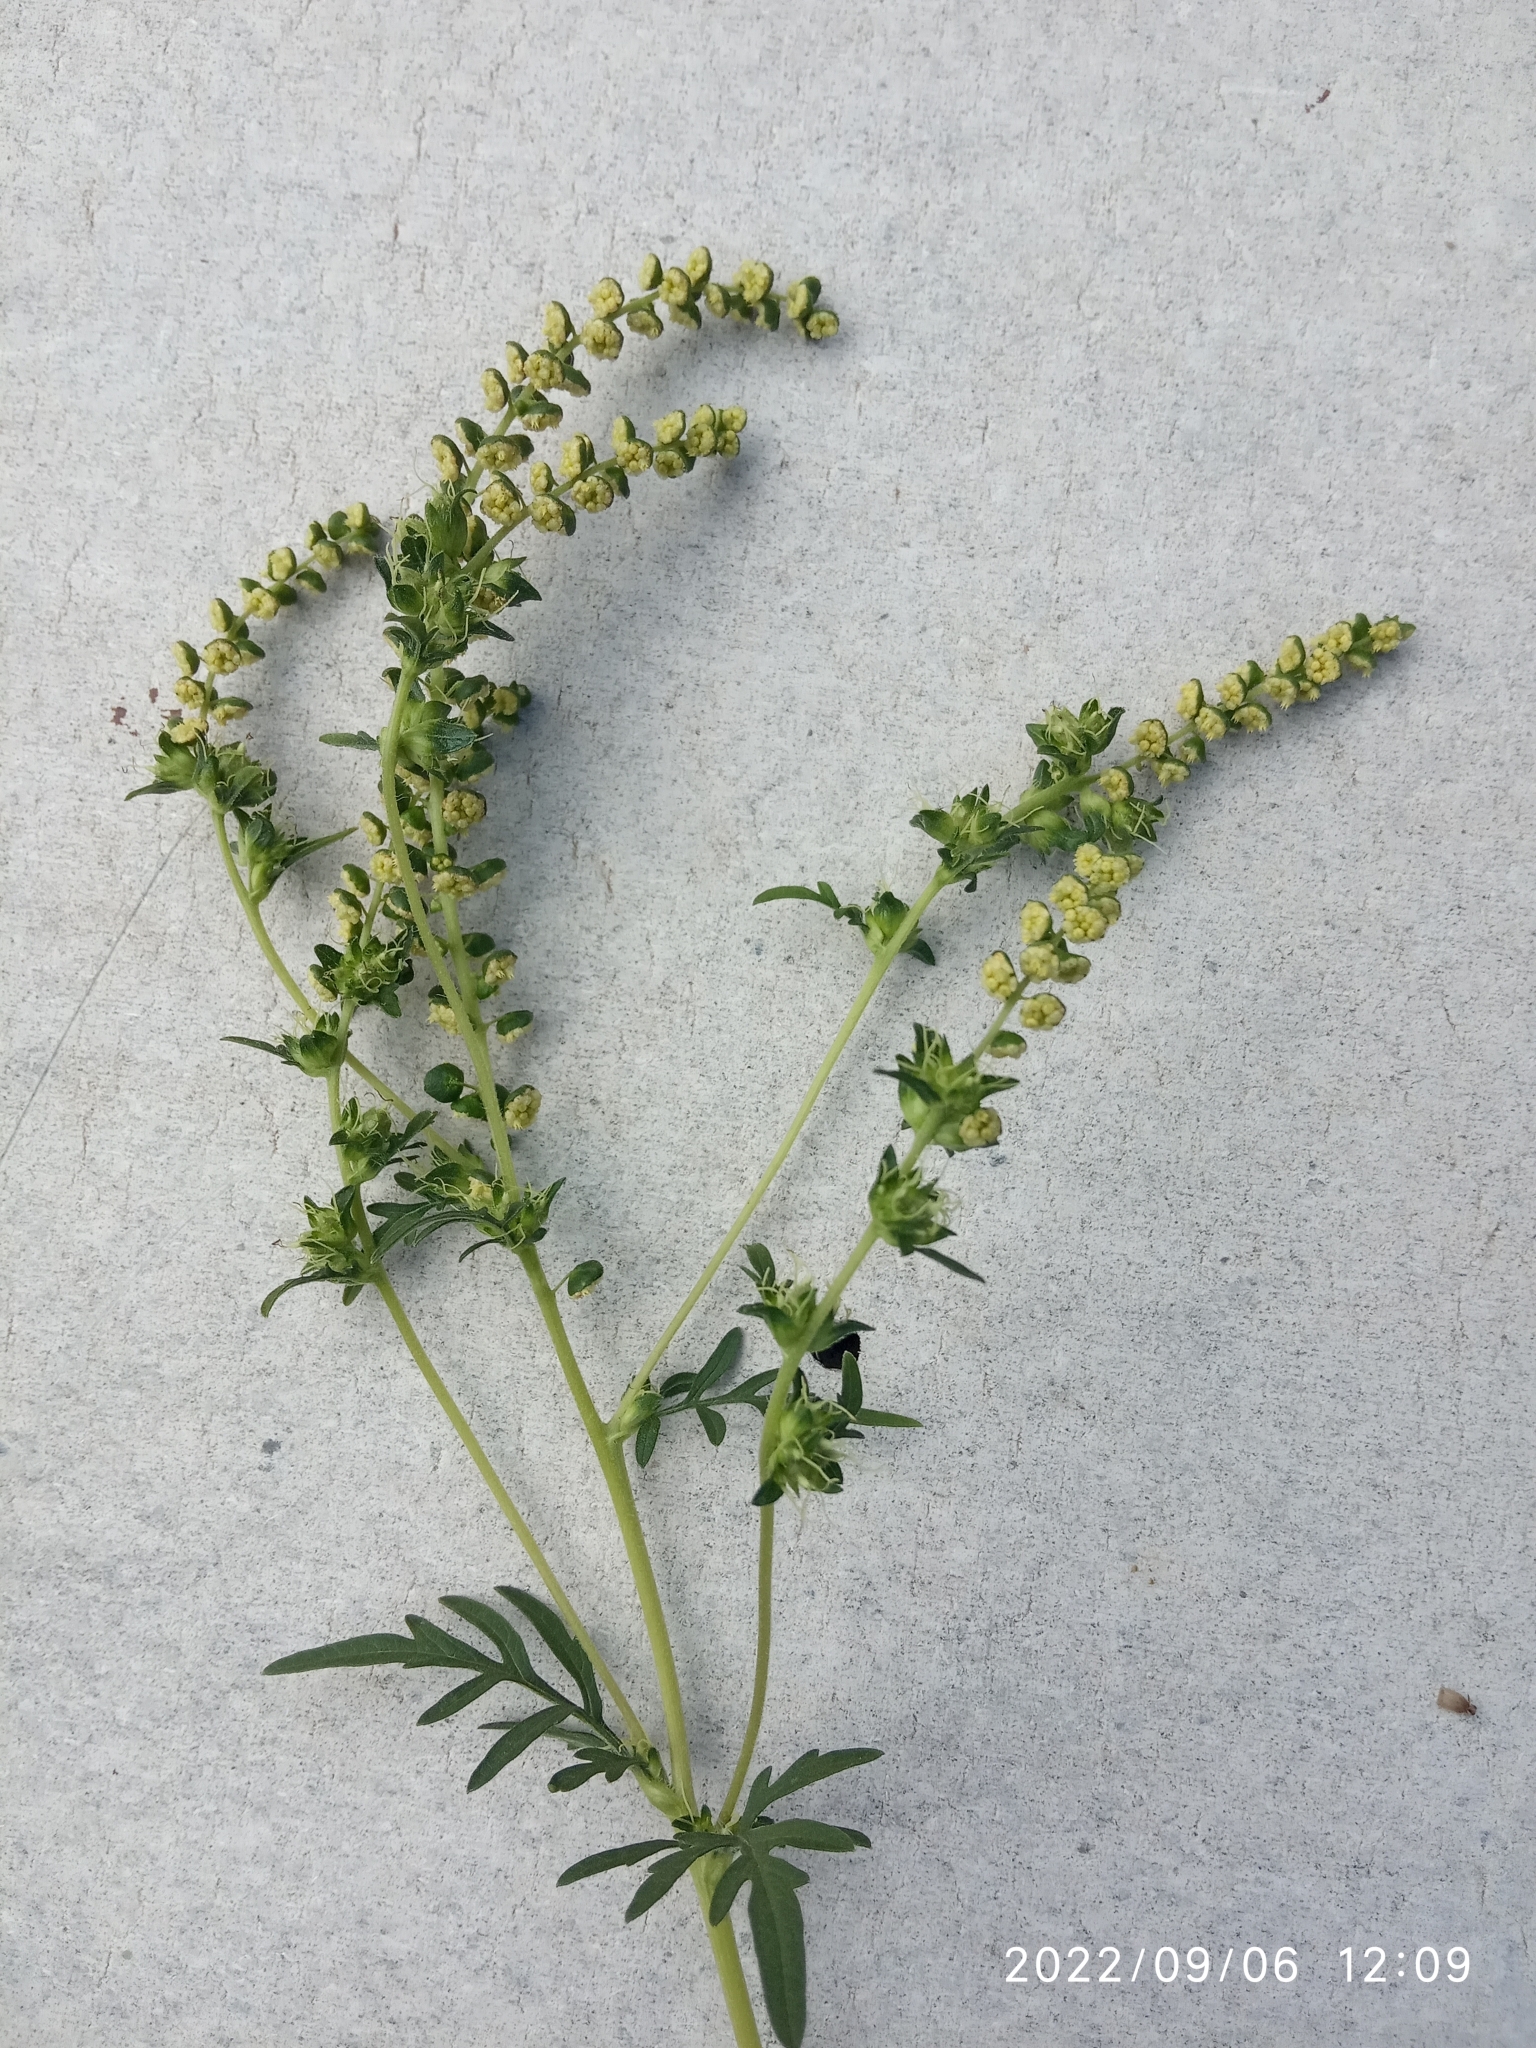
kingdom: Plantae
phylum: Tracheophyta
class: Magnoliopsida
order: Asterales
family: Asteraceae
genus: Ambrosia
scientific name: Ambrosia artemisiifolia
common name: Annual ragweed
